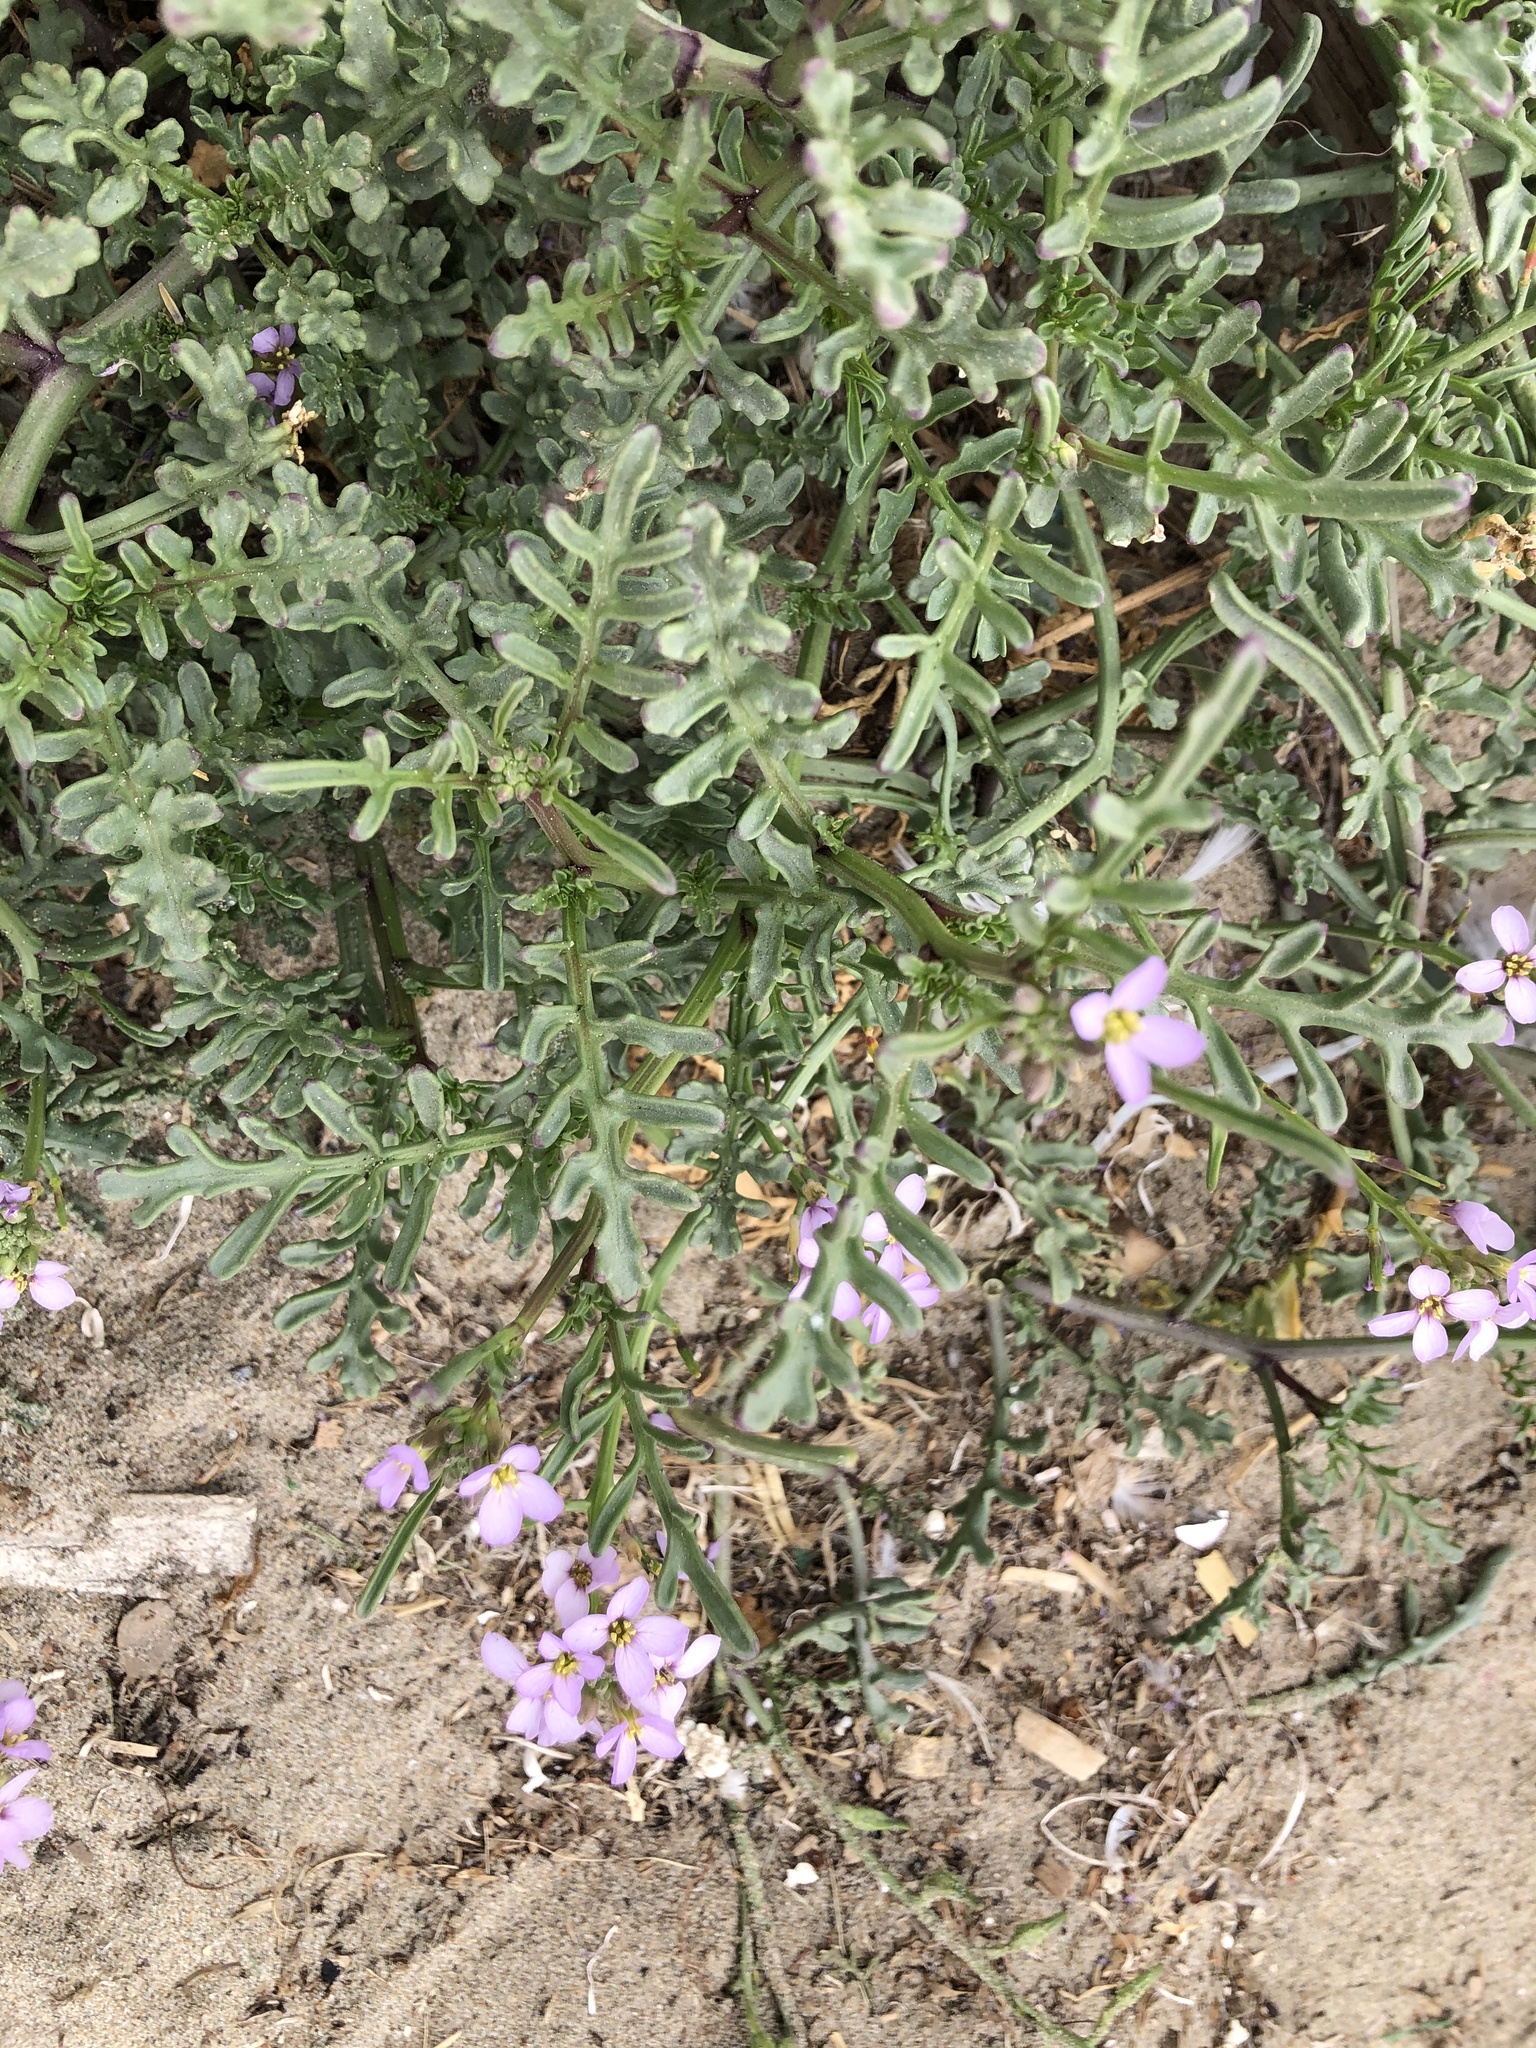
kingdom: Plantae
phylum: Tracheophyta
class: Magnoliopsida
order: Brassicales
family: Brassicaceae
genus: Cakile
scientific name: Cakile maritima
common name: Sea rocket
